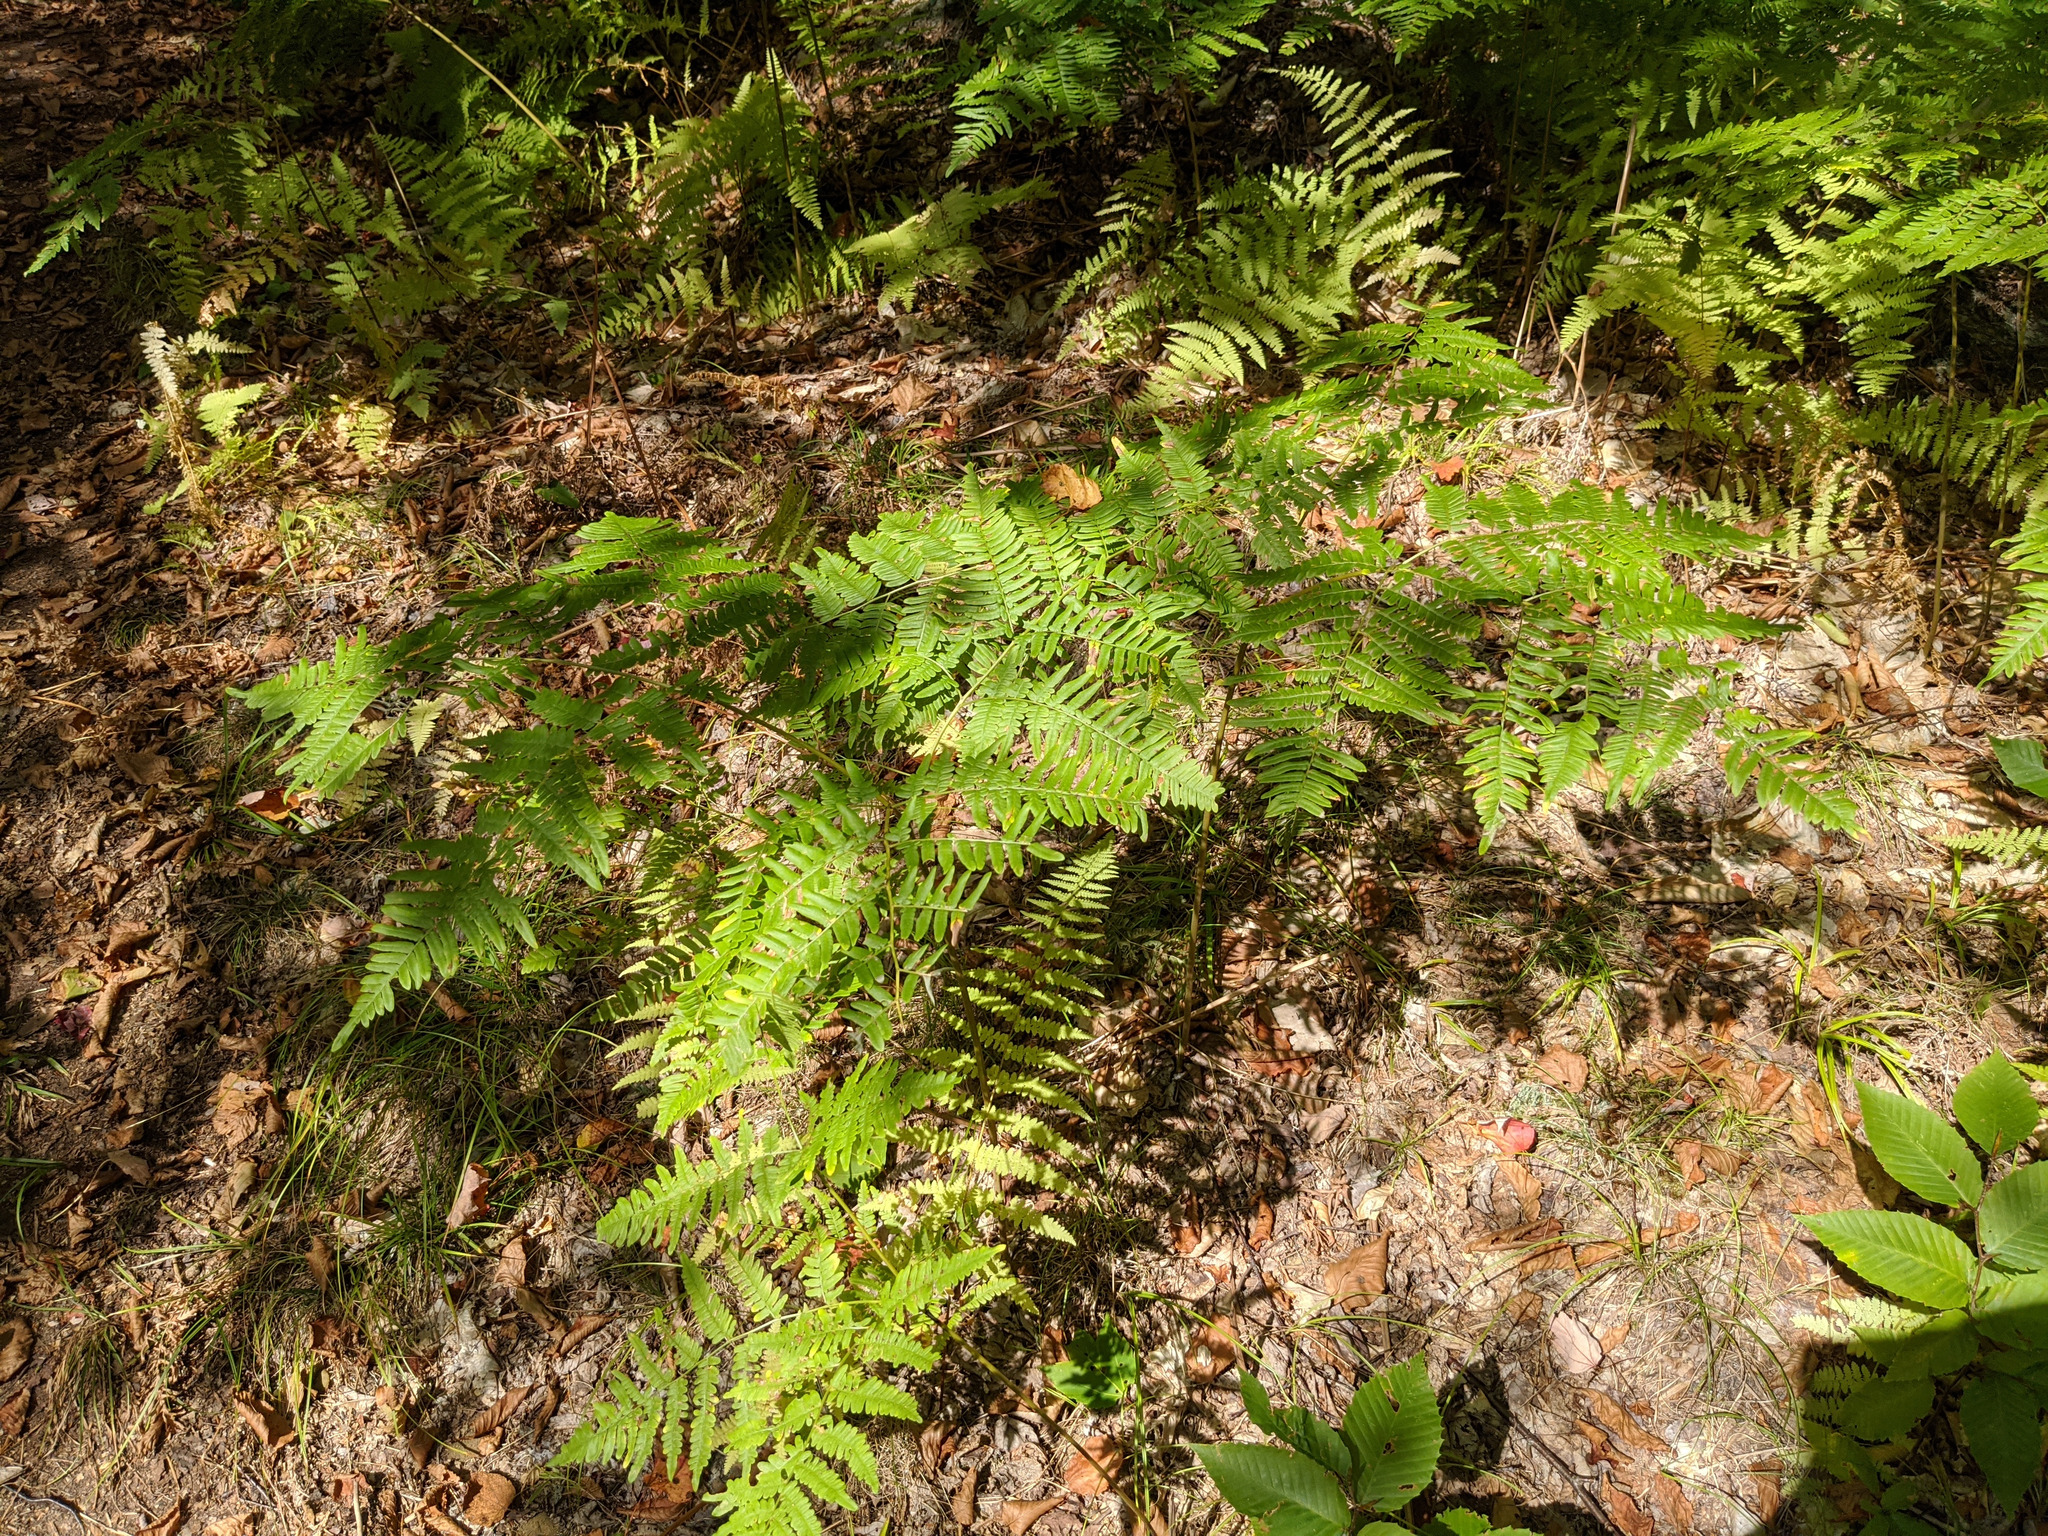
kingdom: Plantae
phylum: Tracheophyta
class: Polypodiopsida
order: Polypodiales
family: Dennstaedtiaceae
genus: Pteridium
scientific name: Pteridium aquilinum
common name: Bracken
